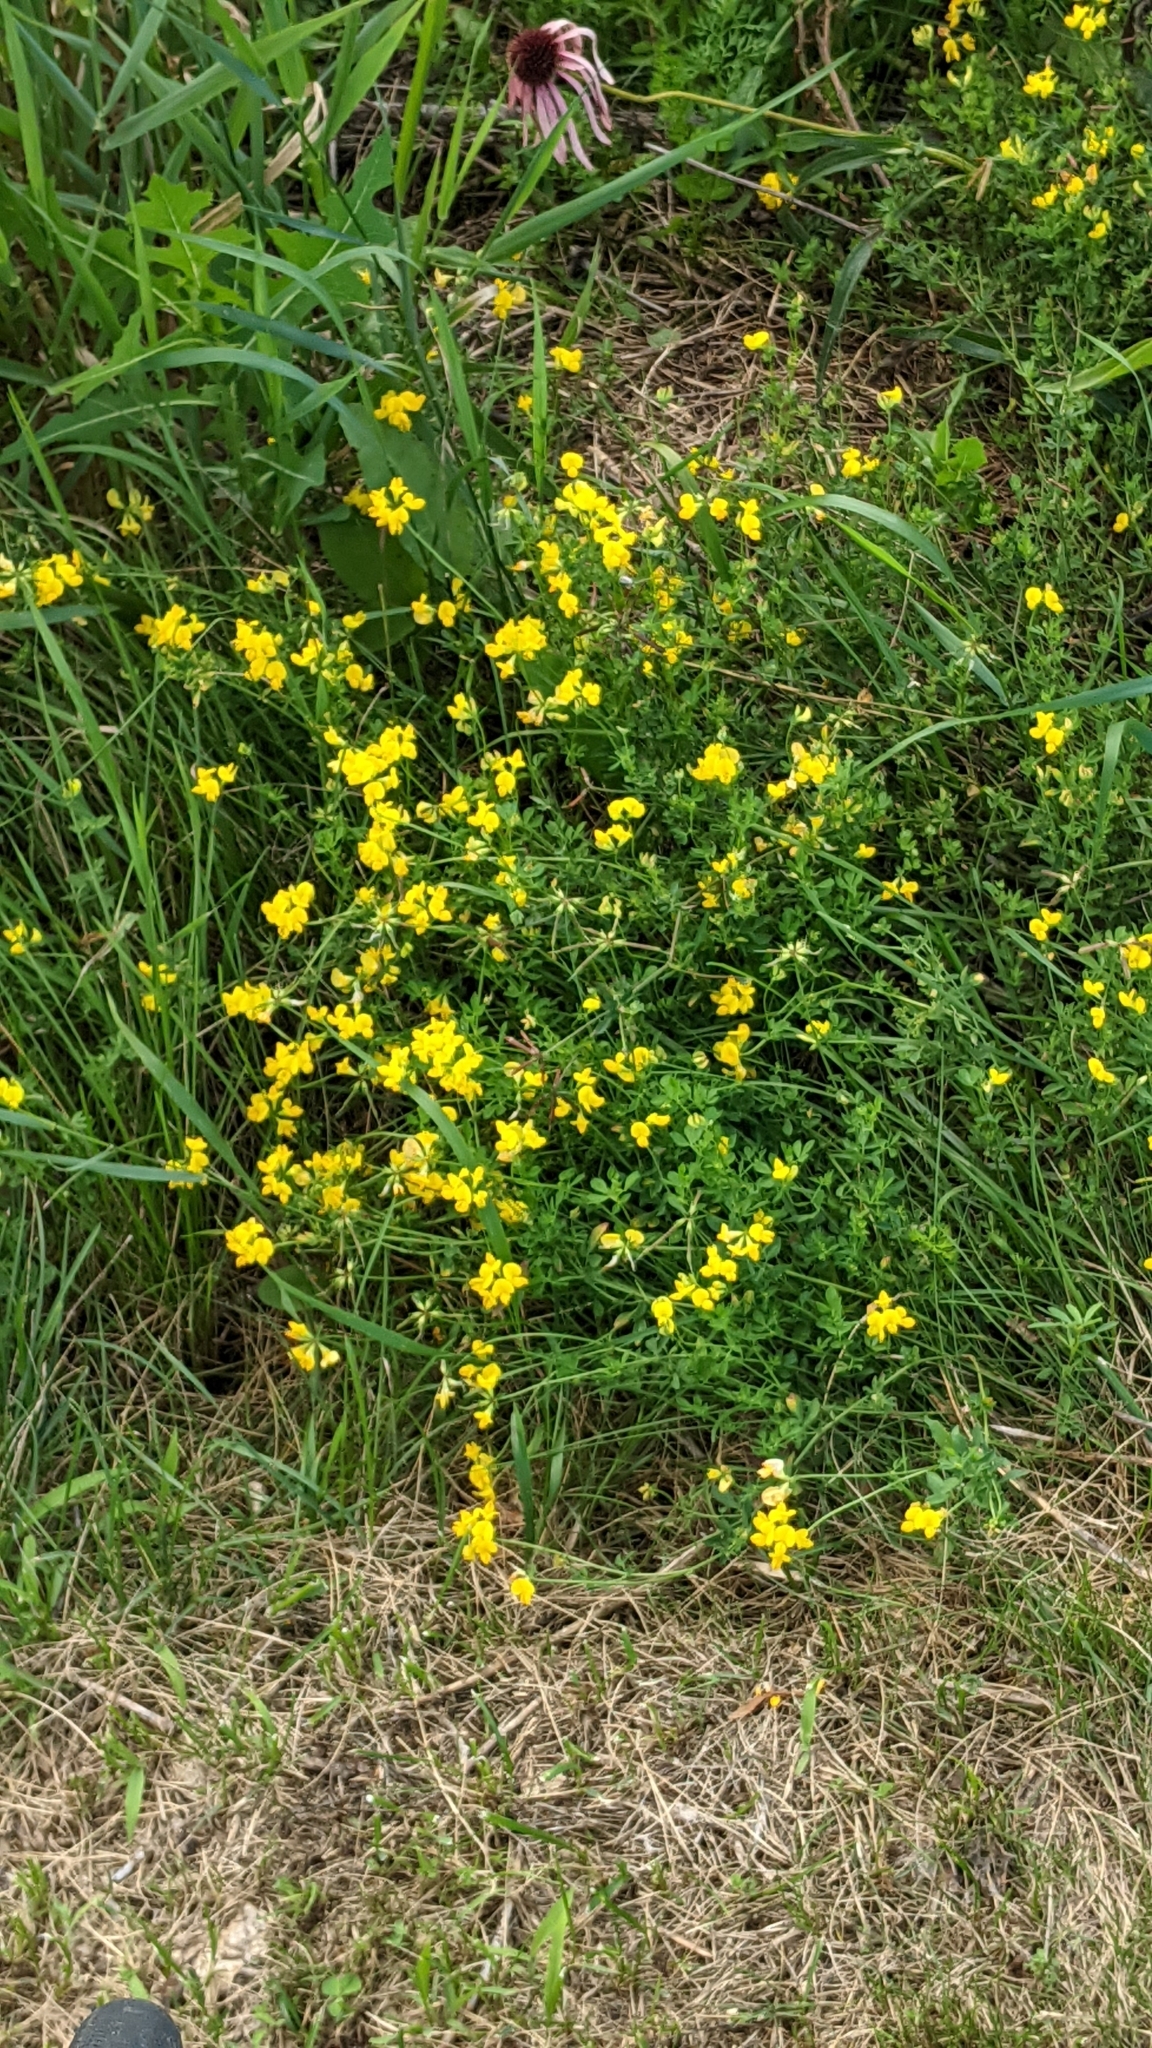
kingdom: Plantae
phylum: Tracheophyta
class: Magnoliopsida
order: Fabales
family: Fabaceae
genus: Lotus
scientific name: Lotus corniculatus
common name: Common bird's-foot-trefoil
